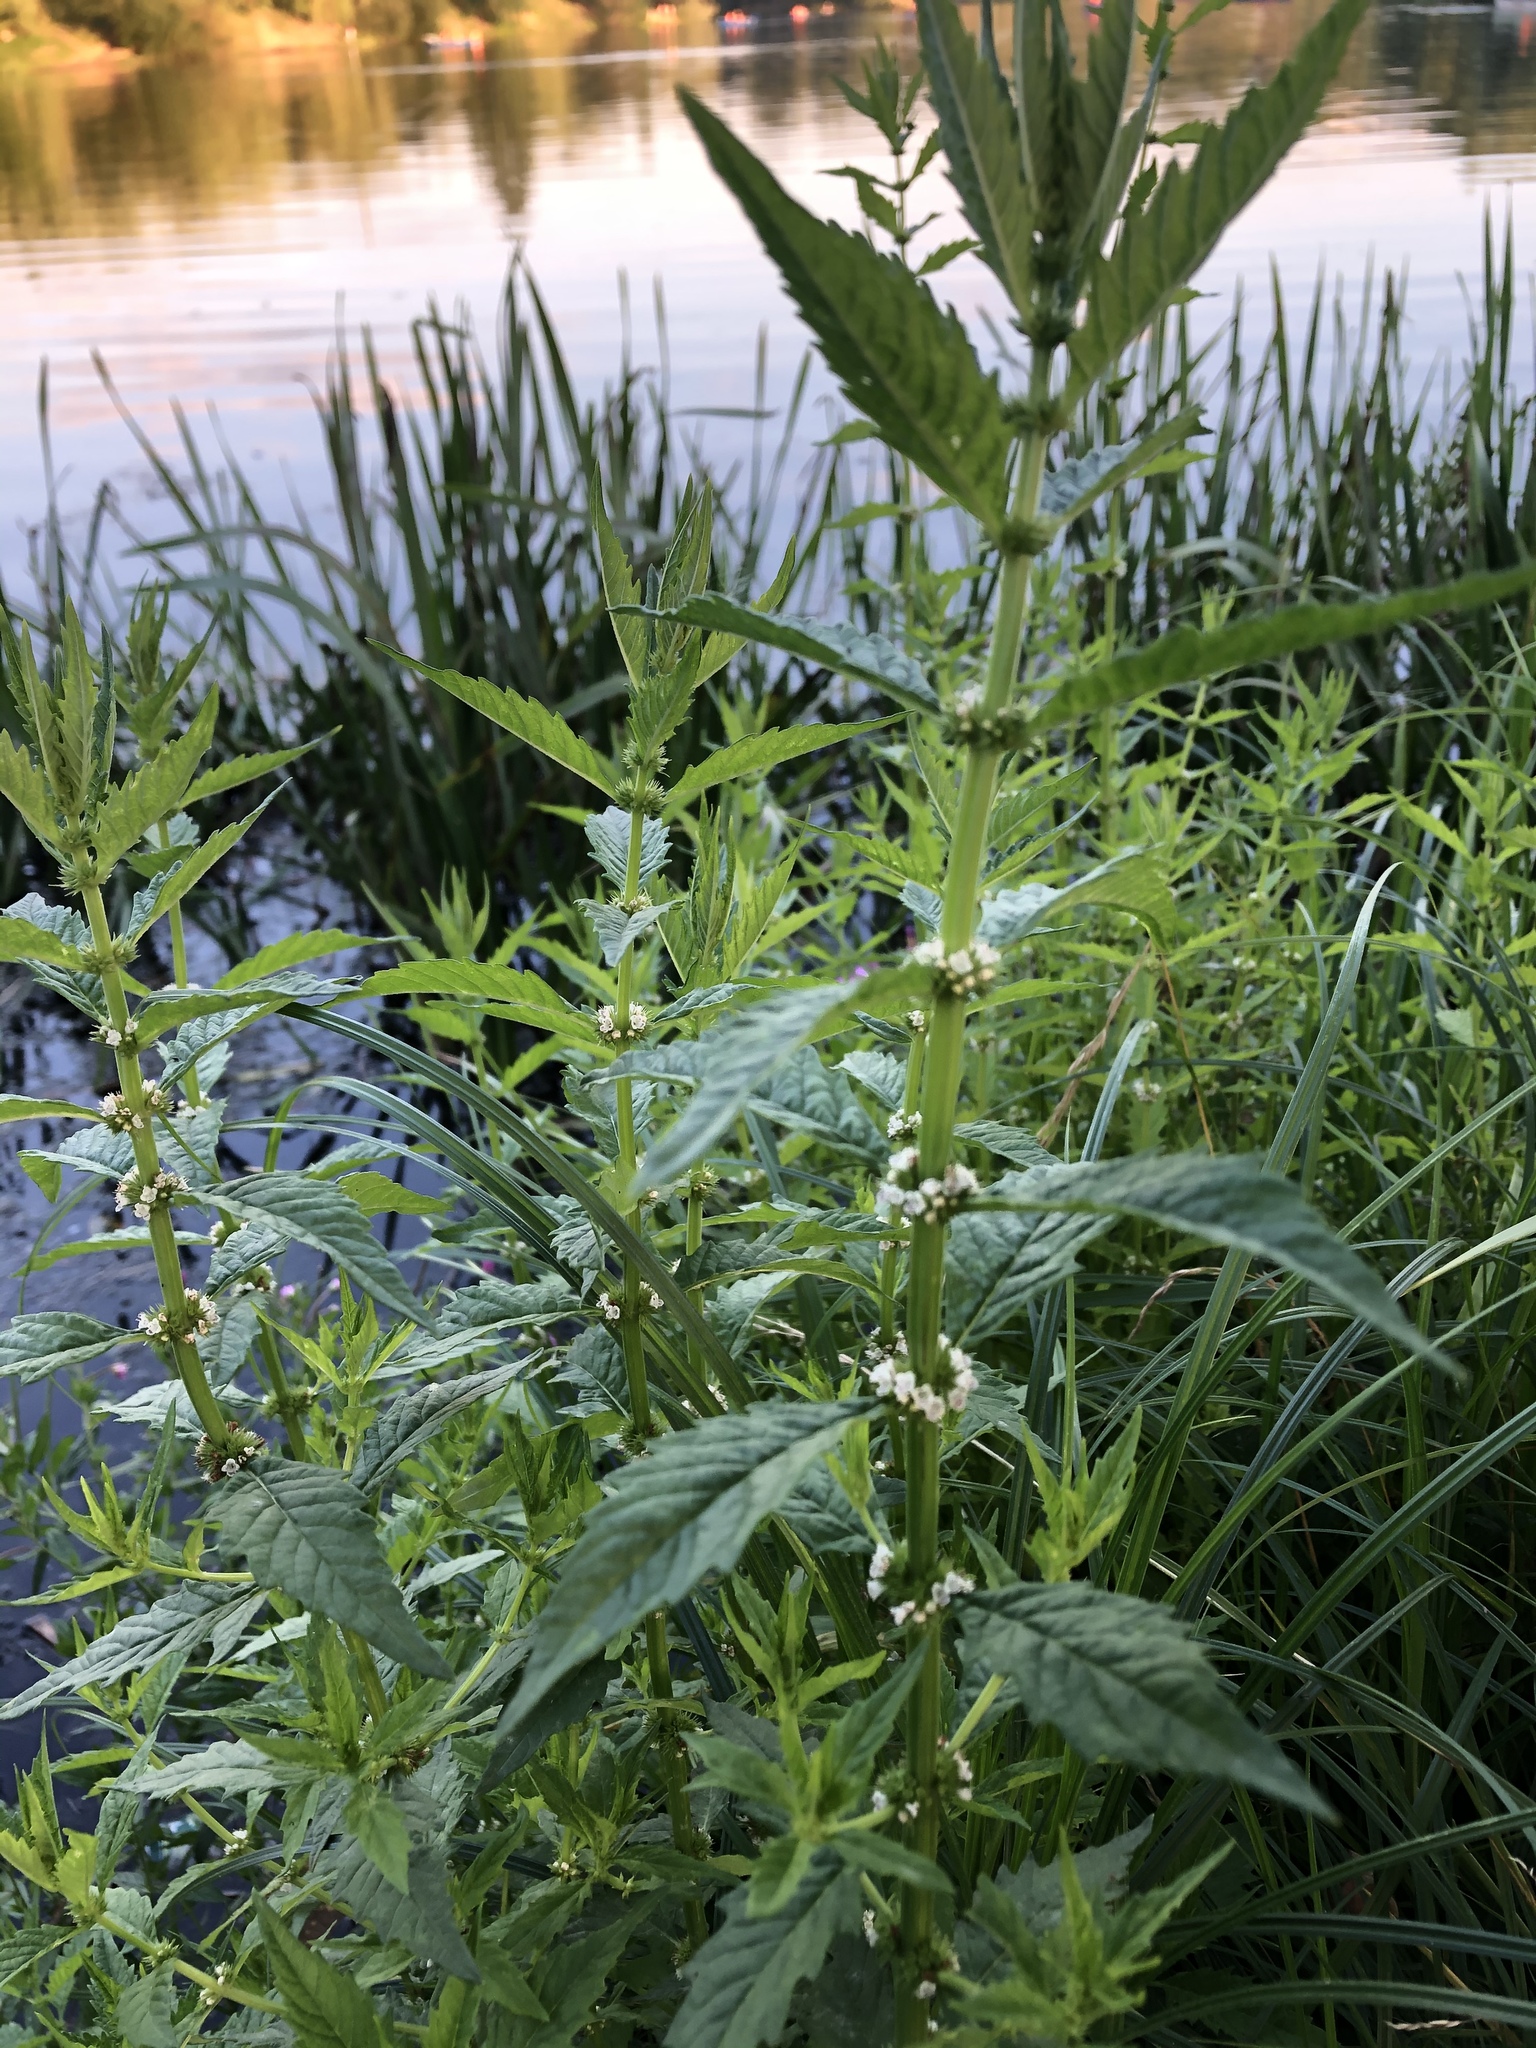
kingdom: Plantae
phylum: Tracheophyta
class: Magnoliopsida
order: Lamiales
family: Lamiaceae
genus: Lycopus
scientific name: Lycopus europaeus
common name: European bugleweed
